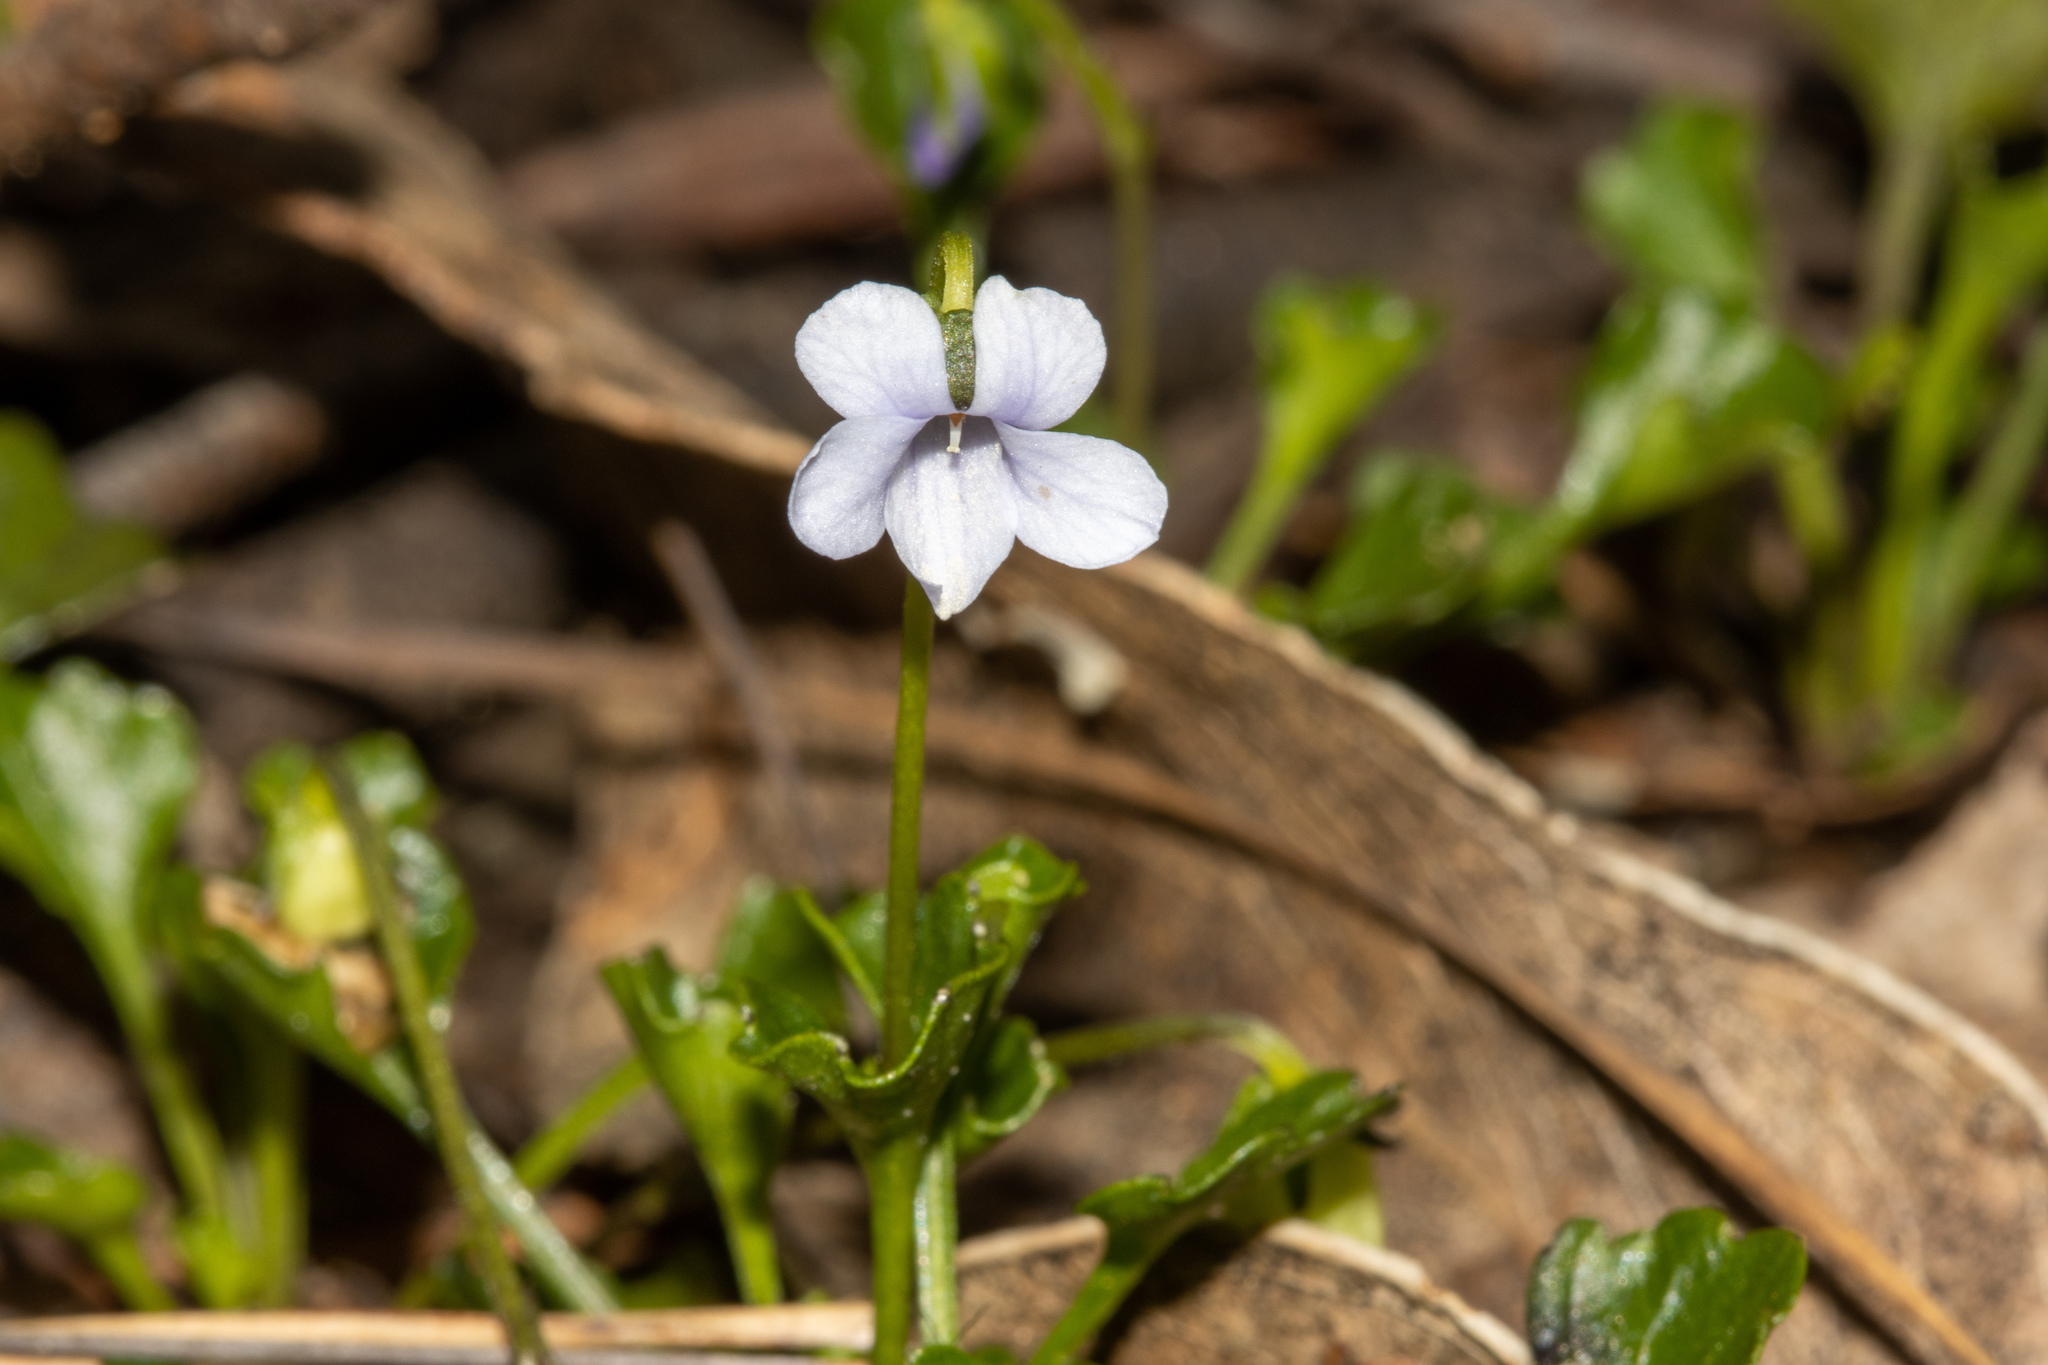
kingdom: Plantae
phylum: Tracheophyta
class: Magnoliopsida
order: Malpighiales
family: Violaceae
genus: Viola
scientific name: Viola sieberiana
